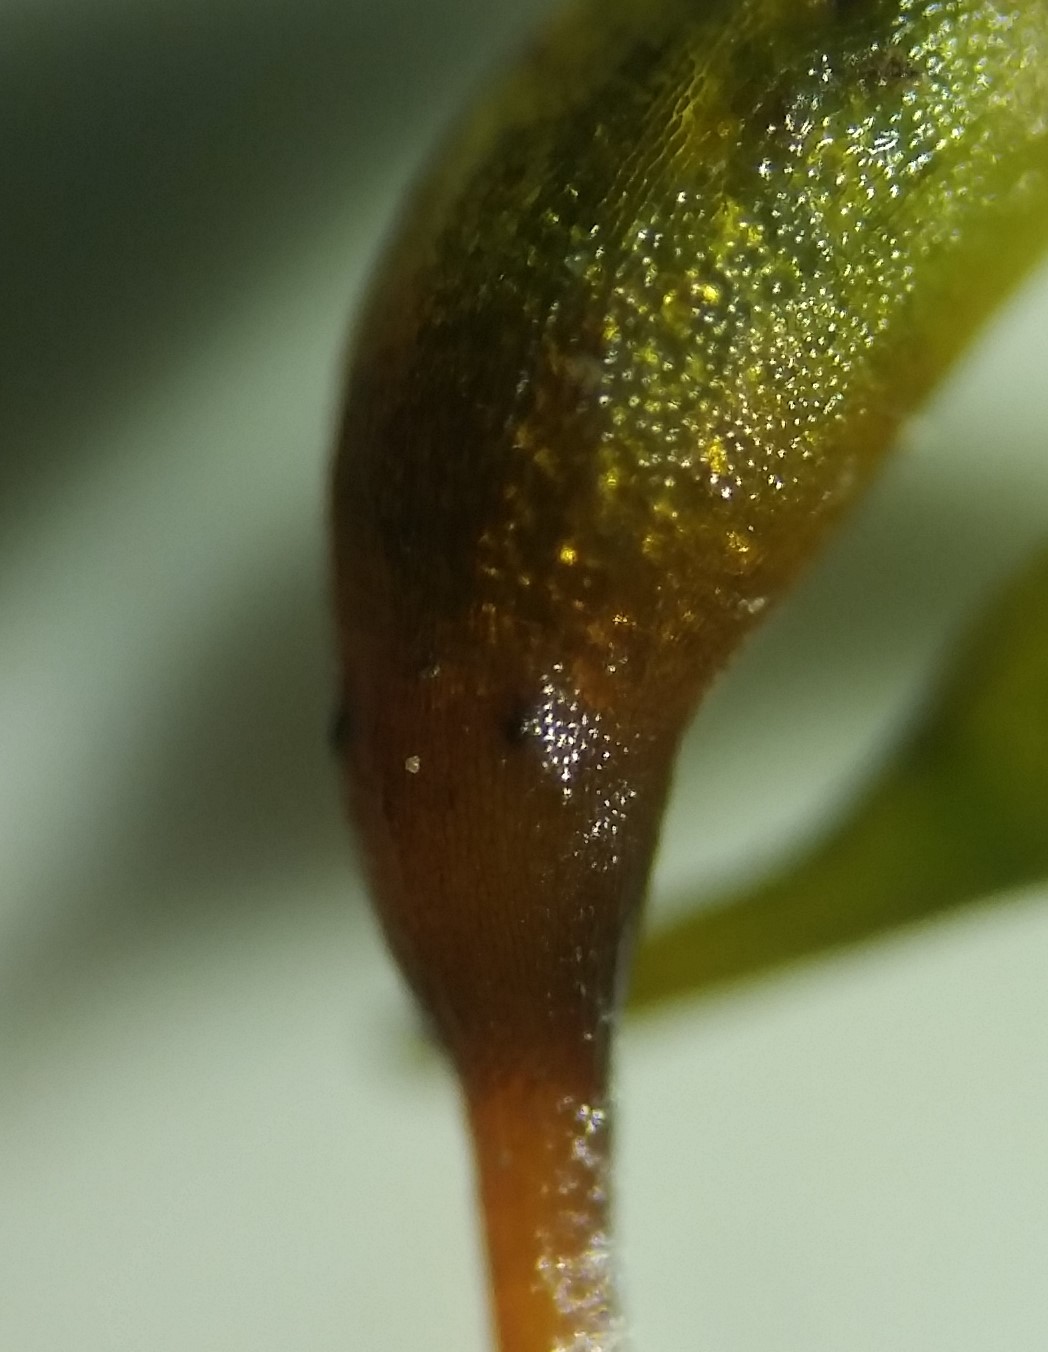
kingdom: Plantae
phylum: Bryophyta
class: Bryopsida
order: Hypnales
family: Brachytheciaceae
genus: Rhynchostegium
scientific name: Rhynchostegium serrulatum
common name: Serrulate-leaved long-beaked moss
